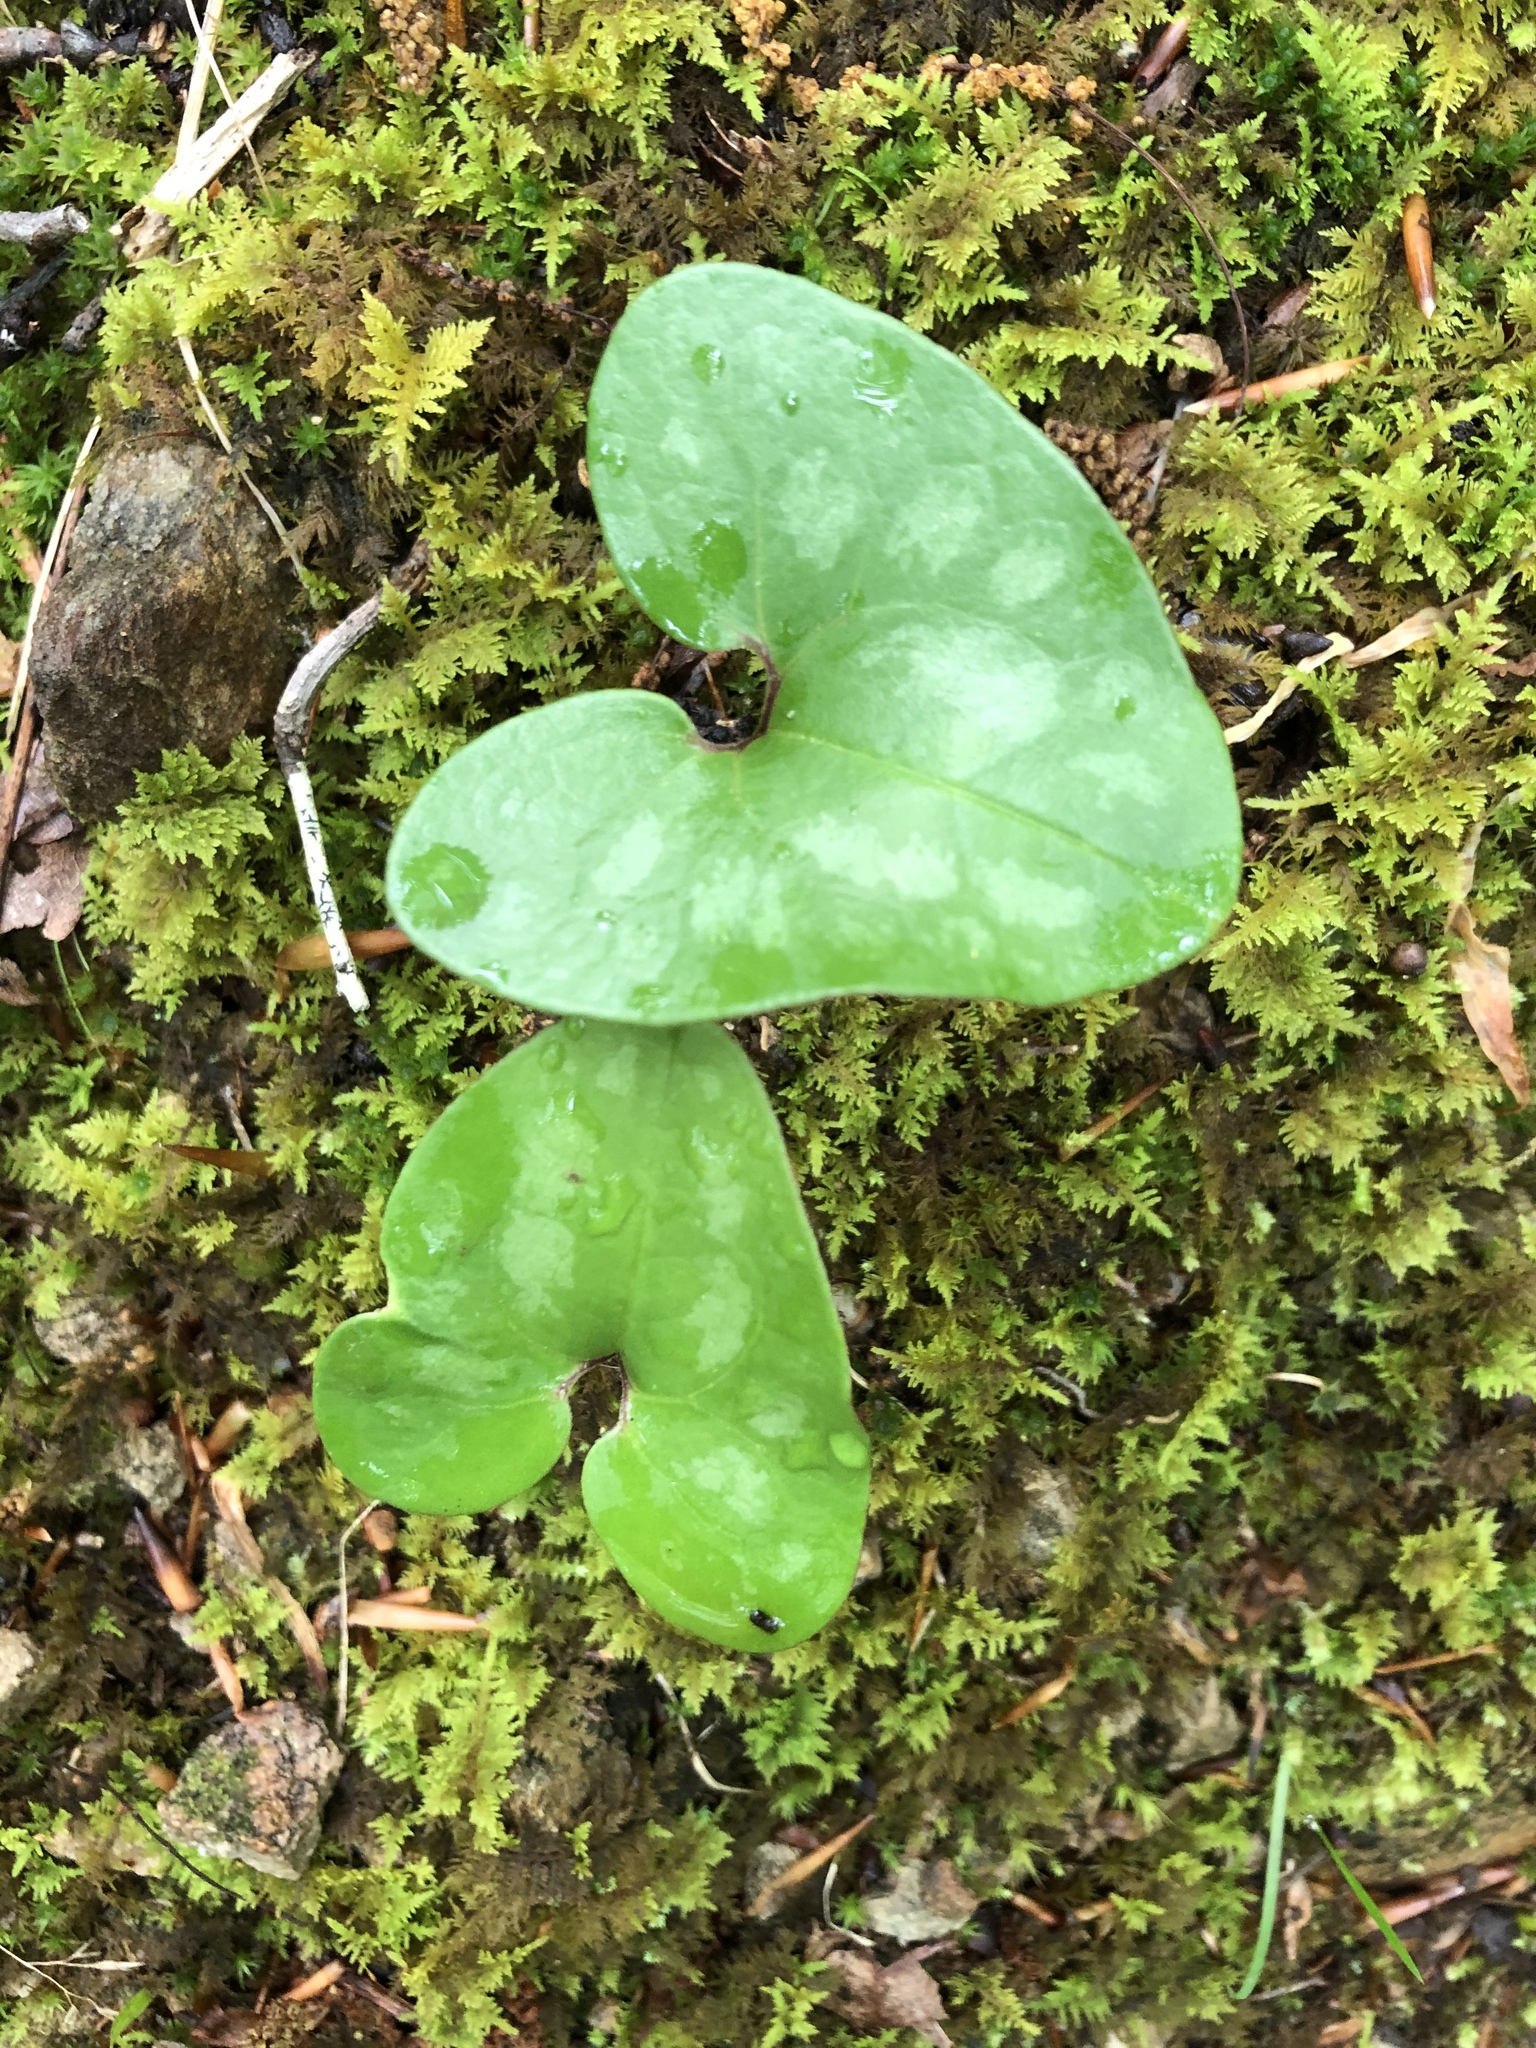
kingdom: Plantae
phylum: Tracheophyta
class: Magnoliopsida
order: Piperales
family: Aristolochiaceae
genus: Hexastylis
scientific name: Hexastylis arifolia
